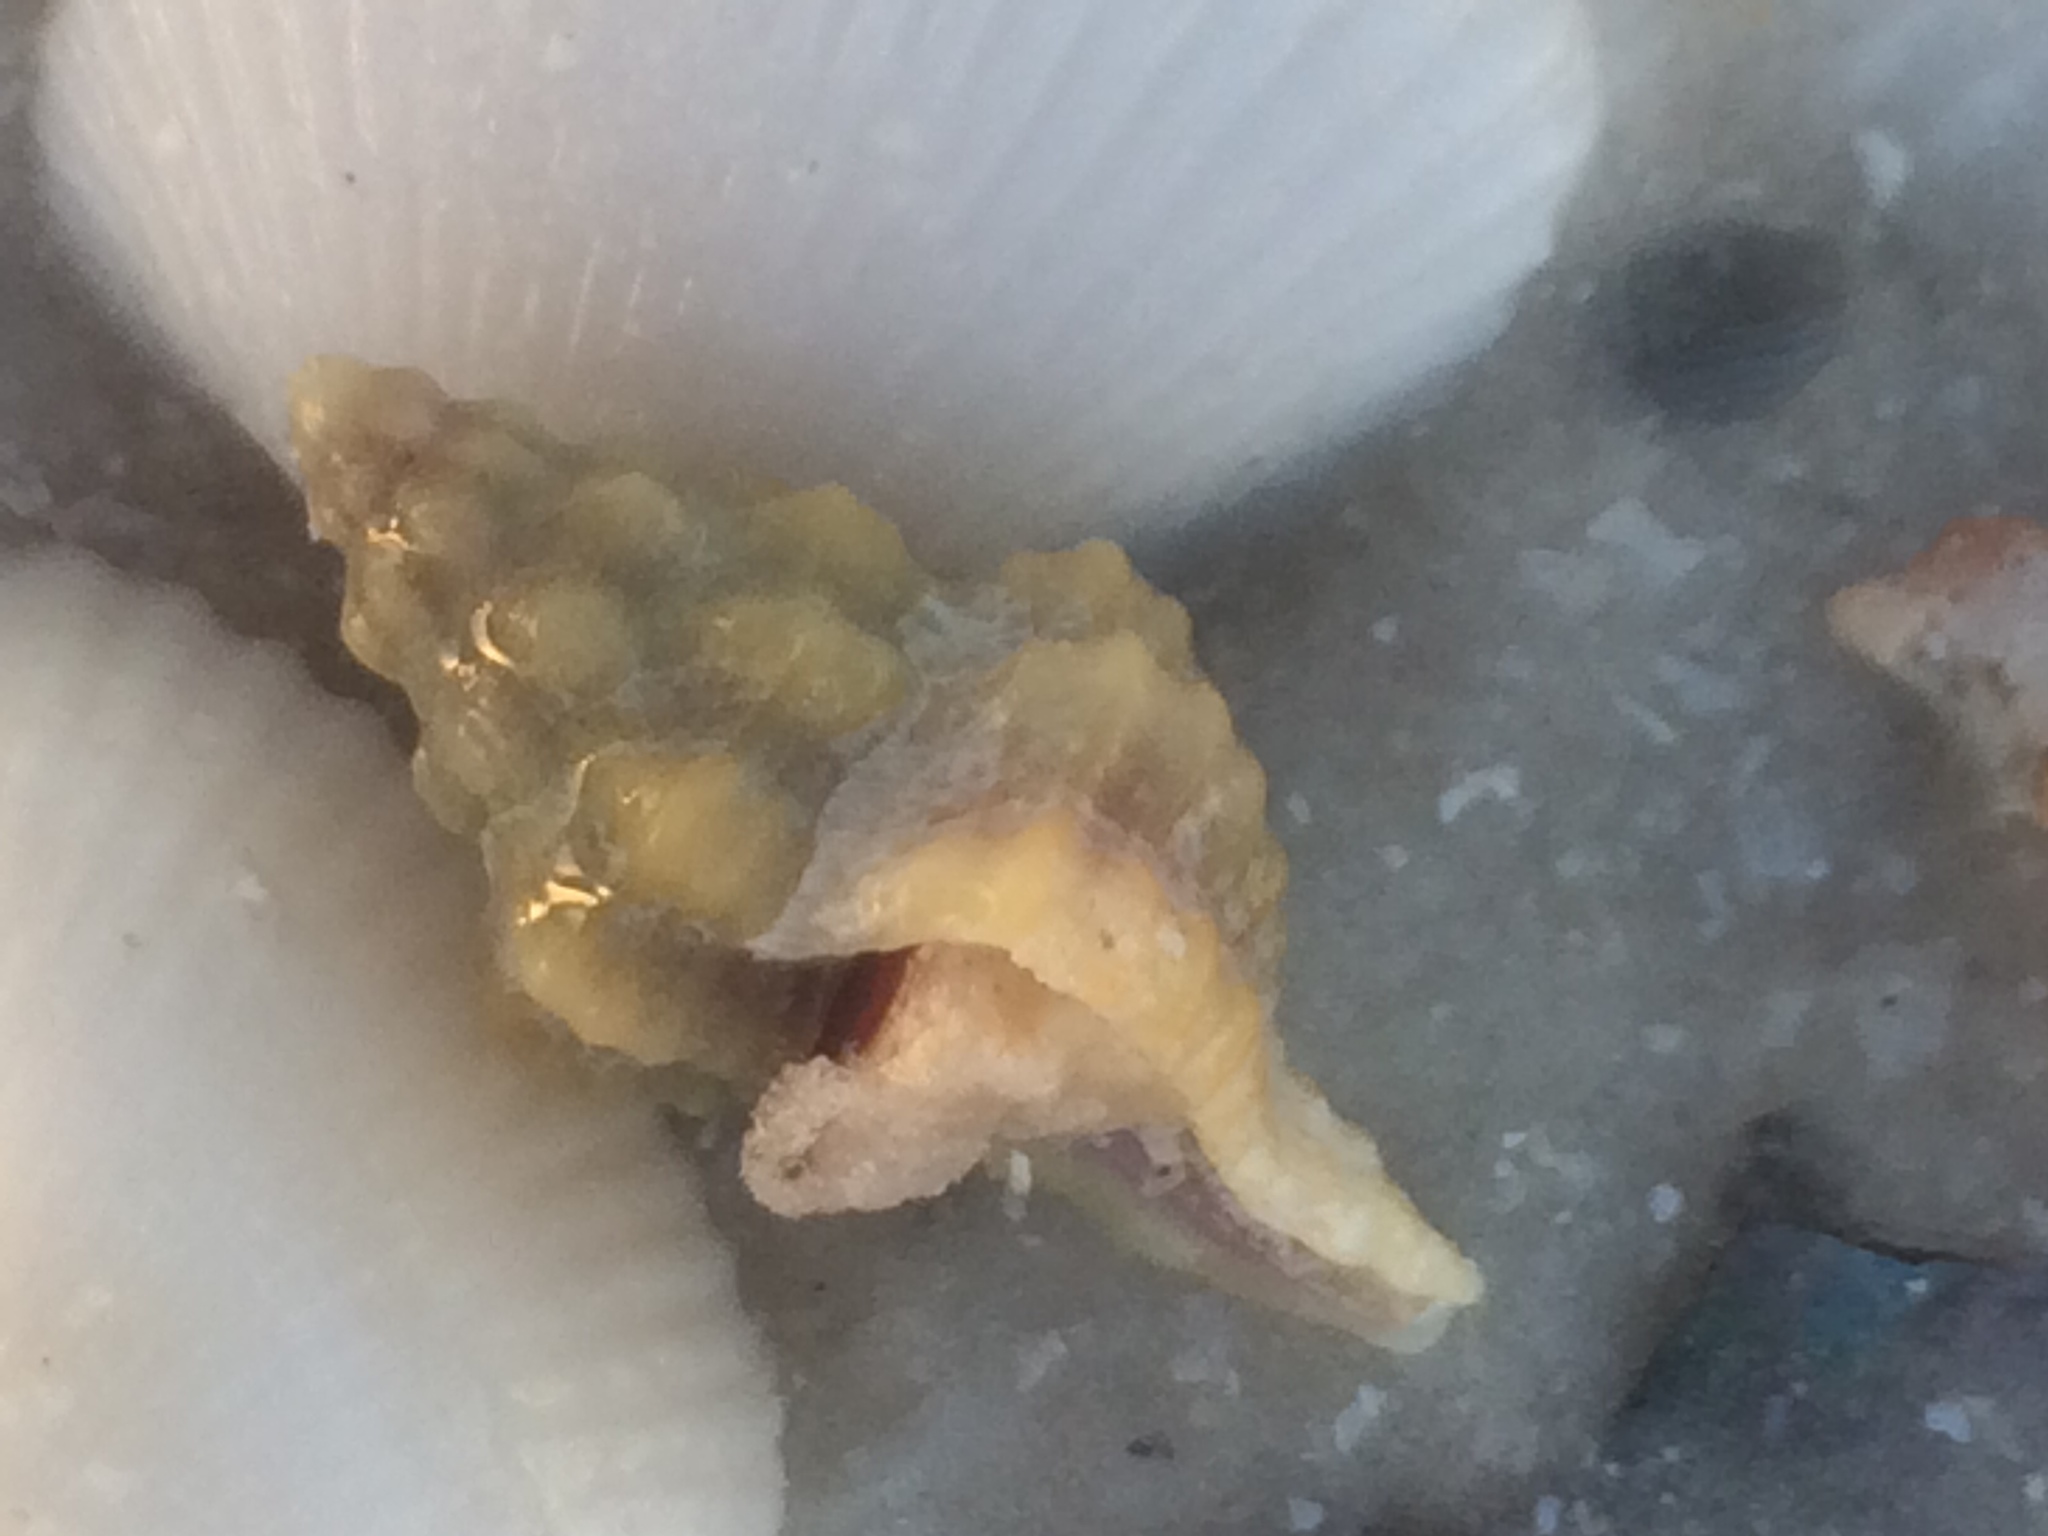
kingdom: Animalia
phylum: Mollusca
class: Gastropoda
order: Neogastropoda
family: Muricidae
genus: Calotrophon
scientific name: Calotrophon ostrearum
